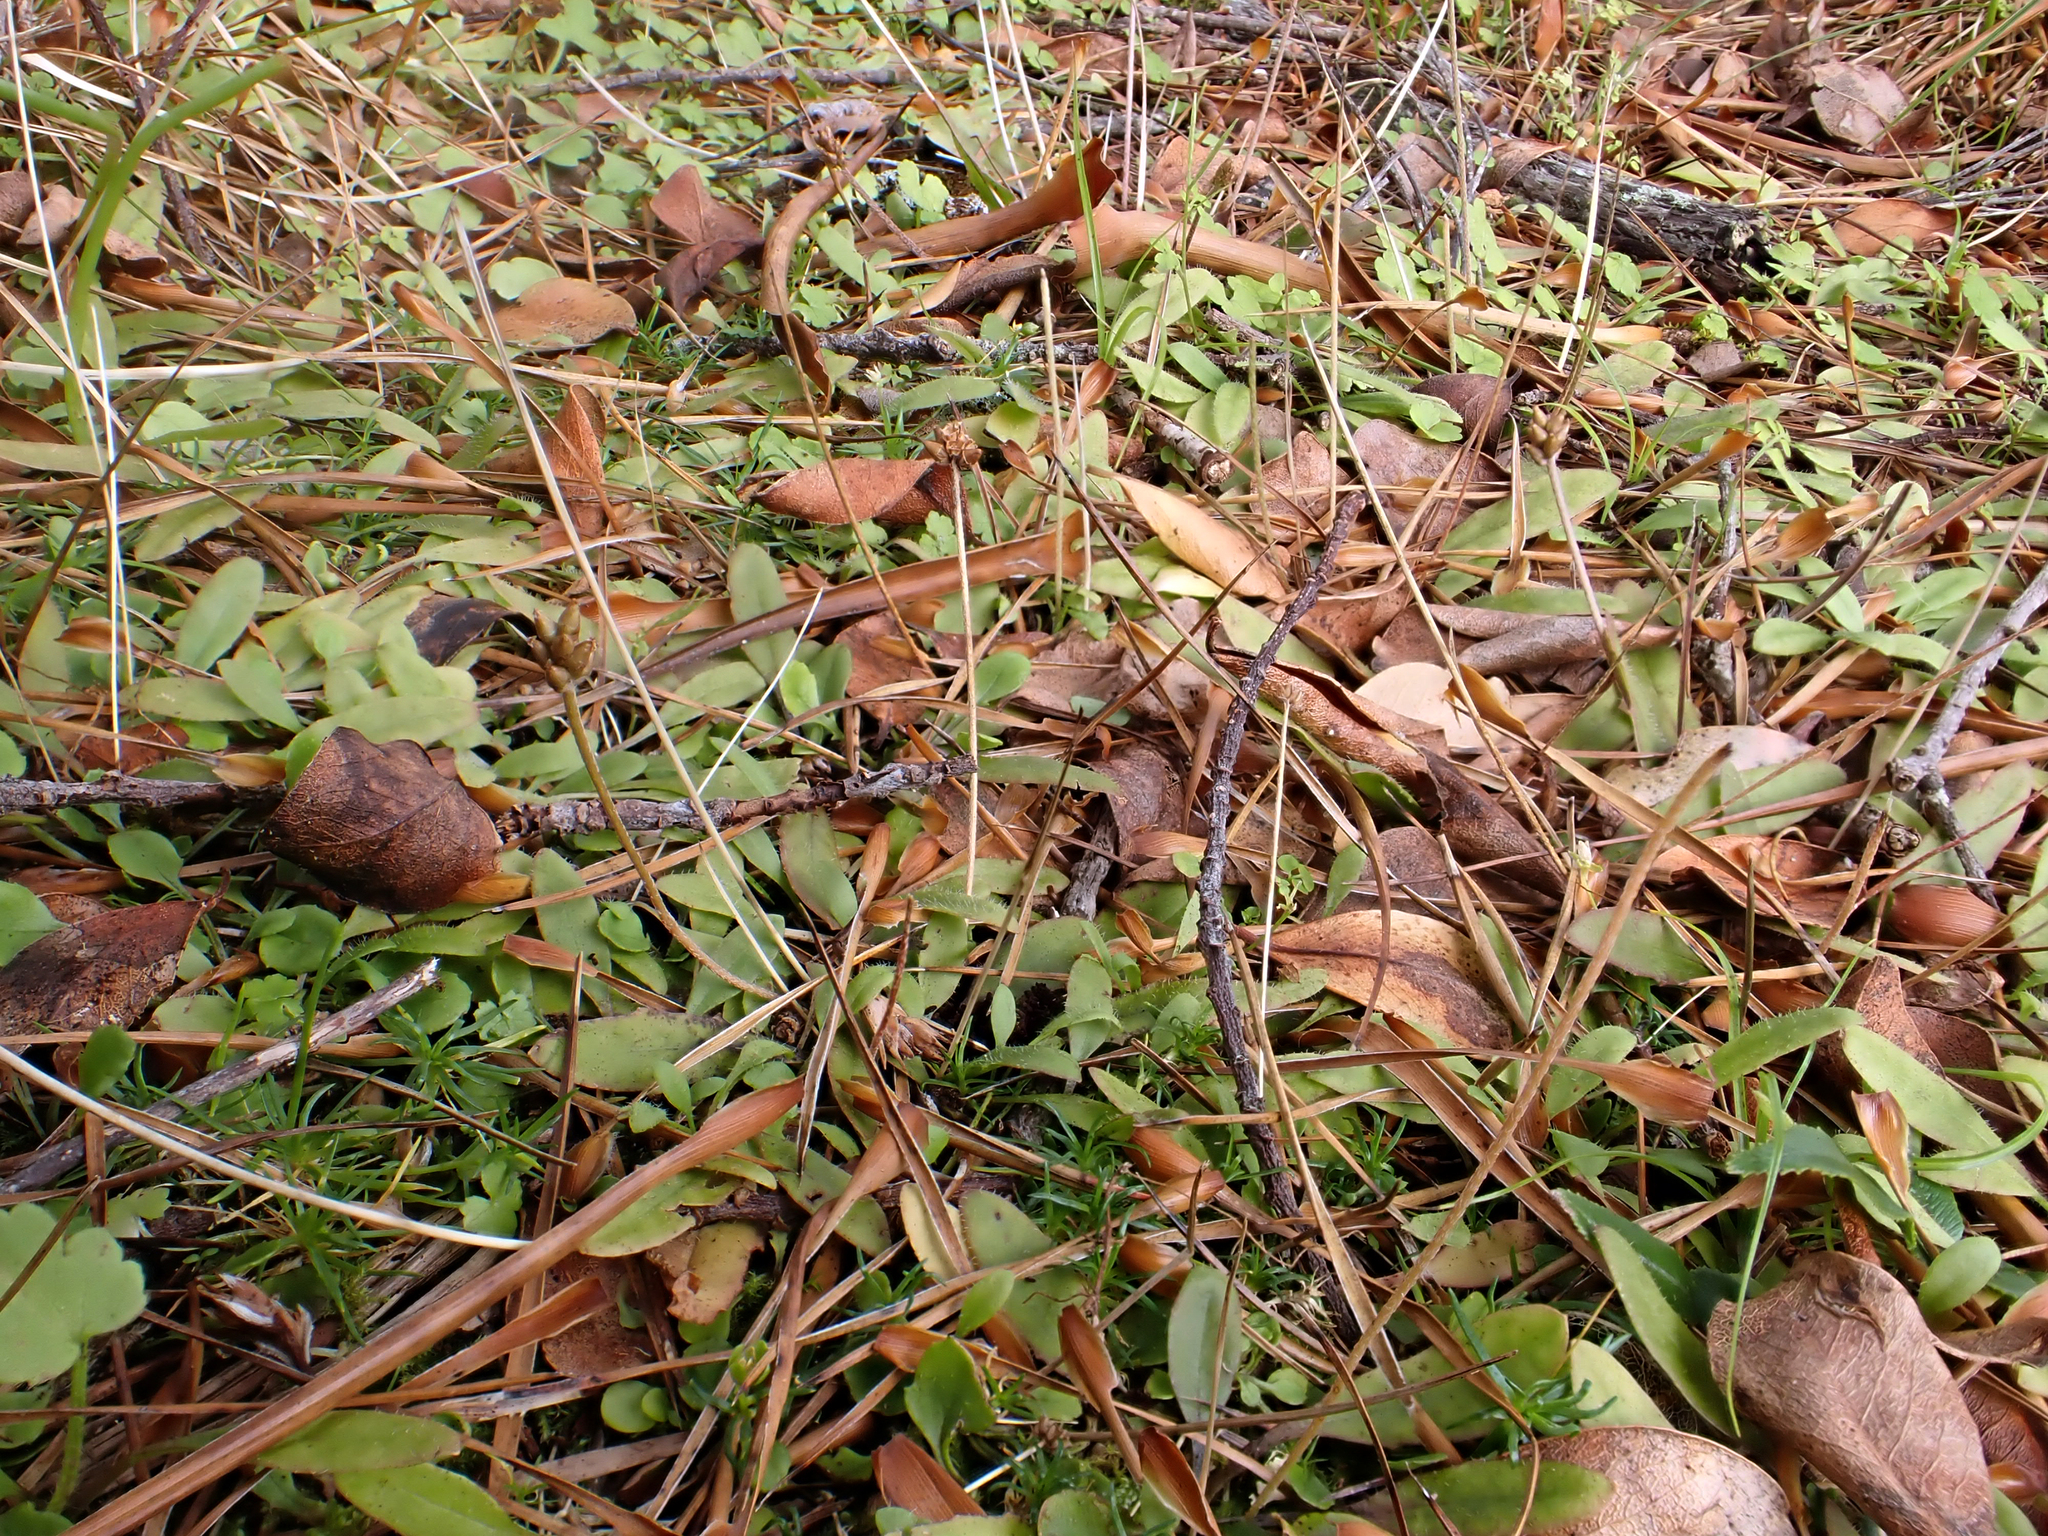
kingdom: Plantae
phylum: Tracheophyta
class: Magnoliopsida
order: Lamiales
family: Plantaginaceae
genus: Plantago
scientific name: Plantago raoulii
